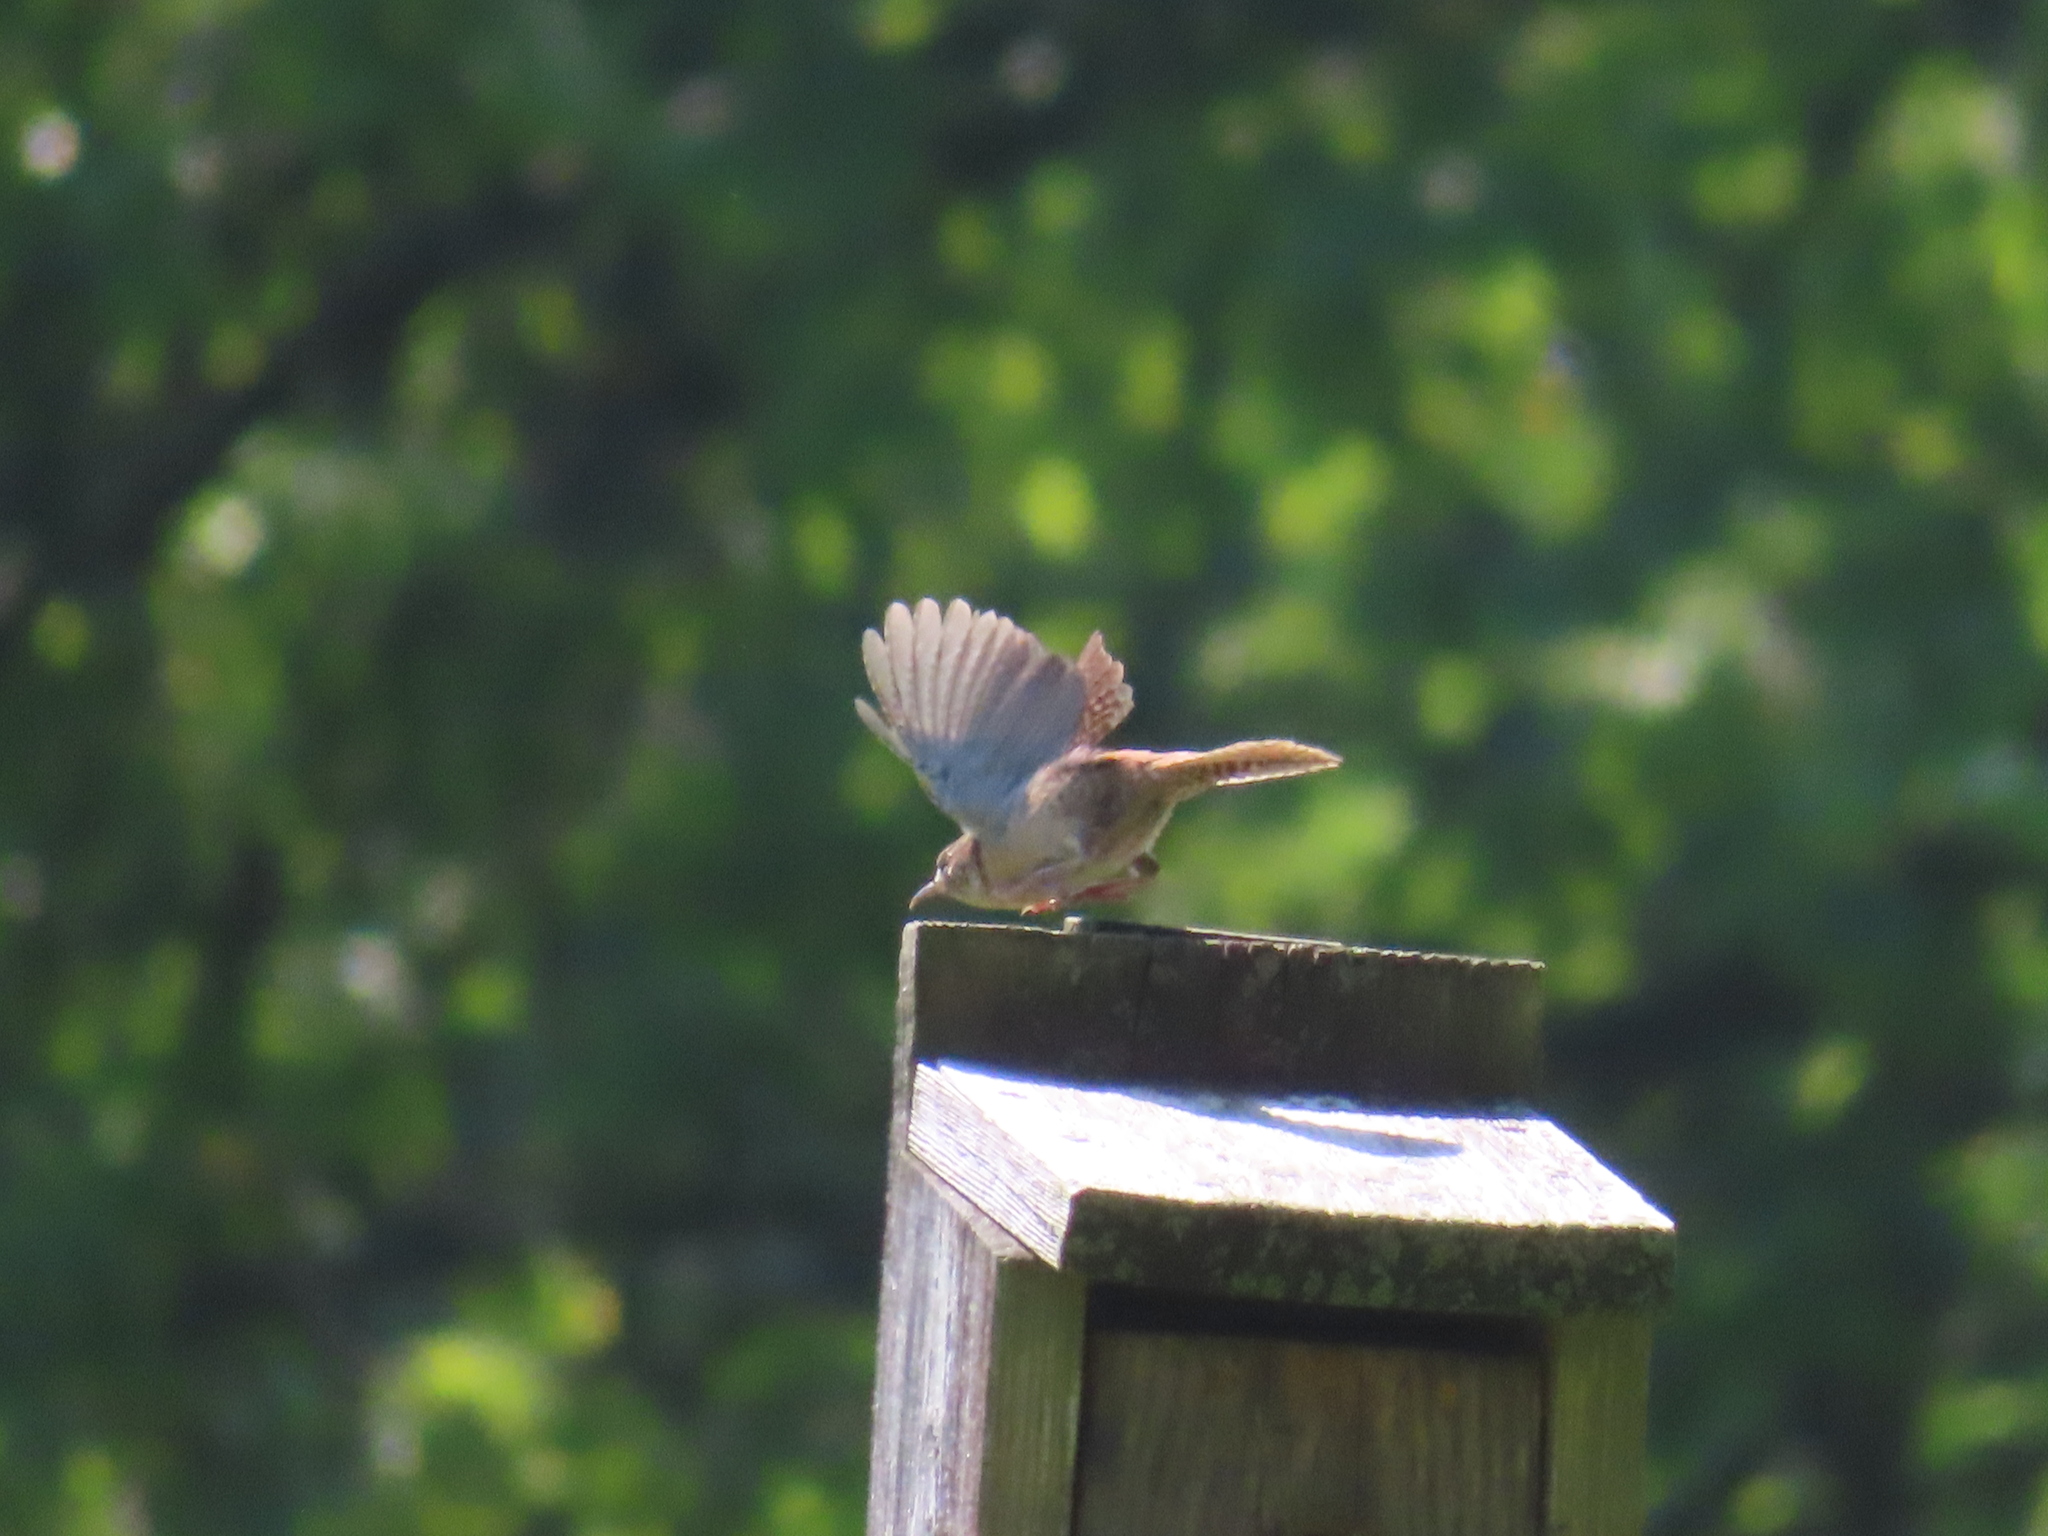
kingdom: Animalia
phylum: Chordata
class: Aves
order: Passeriformes
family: Troglodytidae
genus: Troglodytes
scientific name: Troglodytes aedon
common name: House wren
